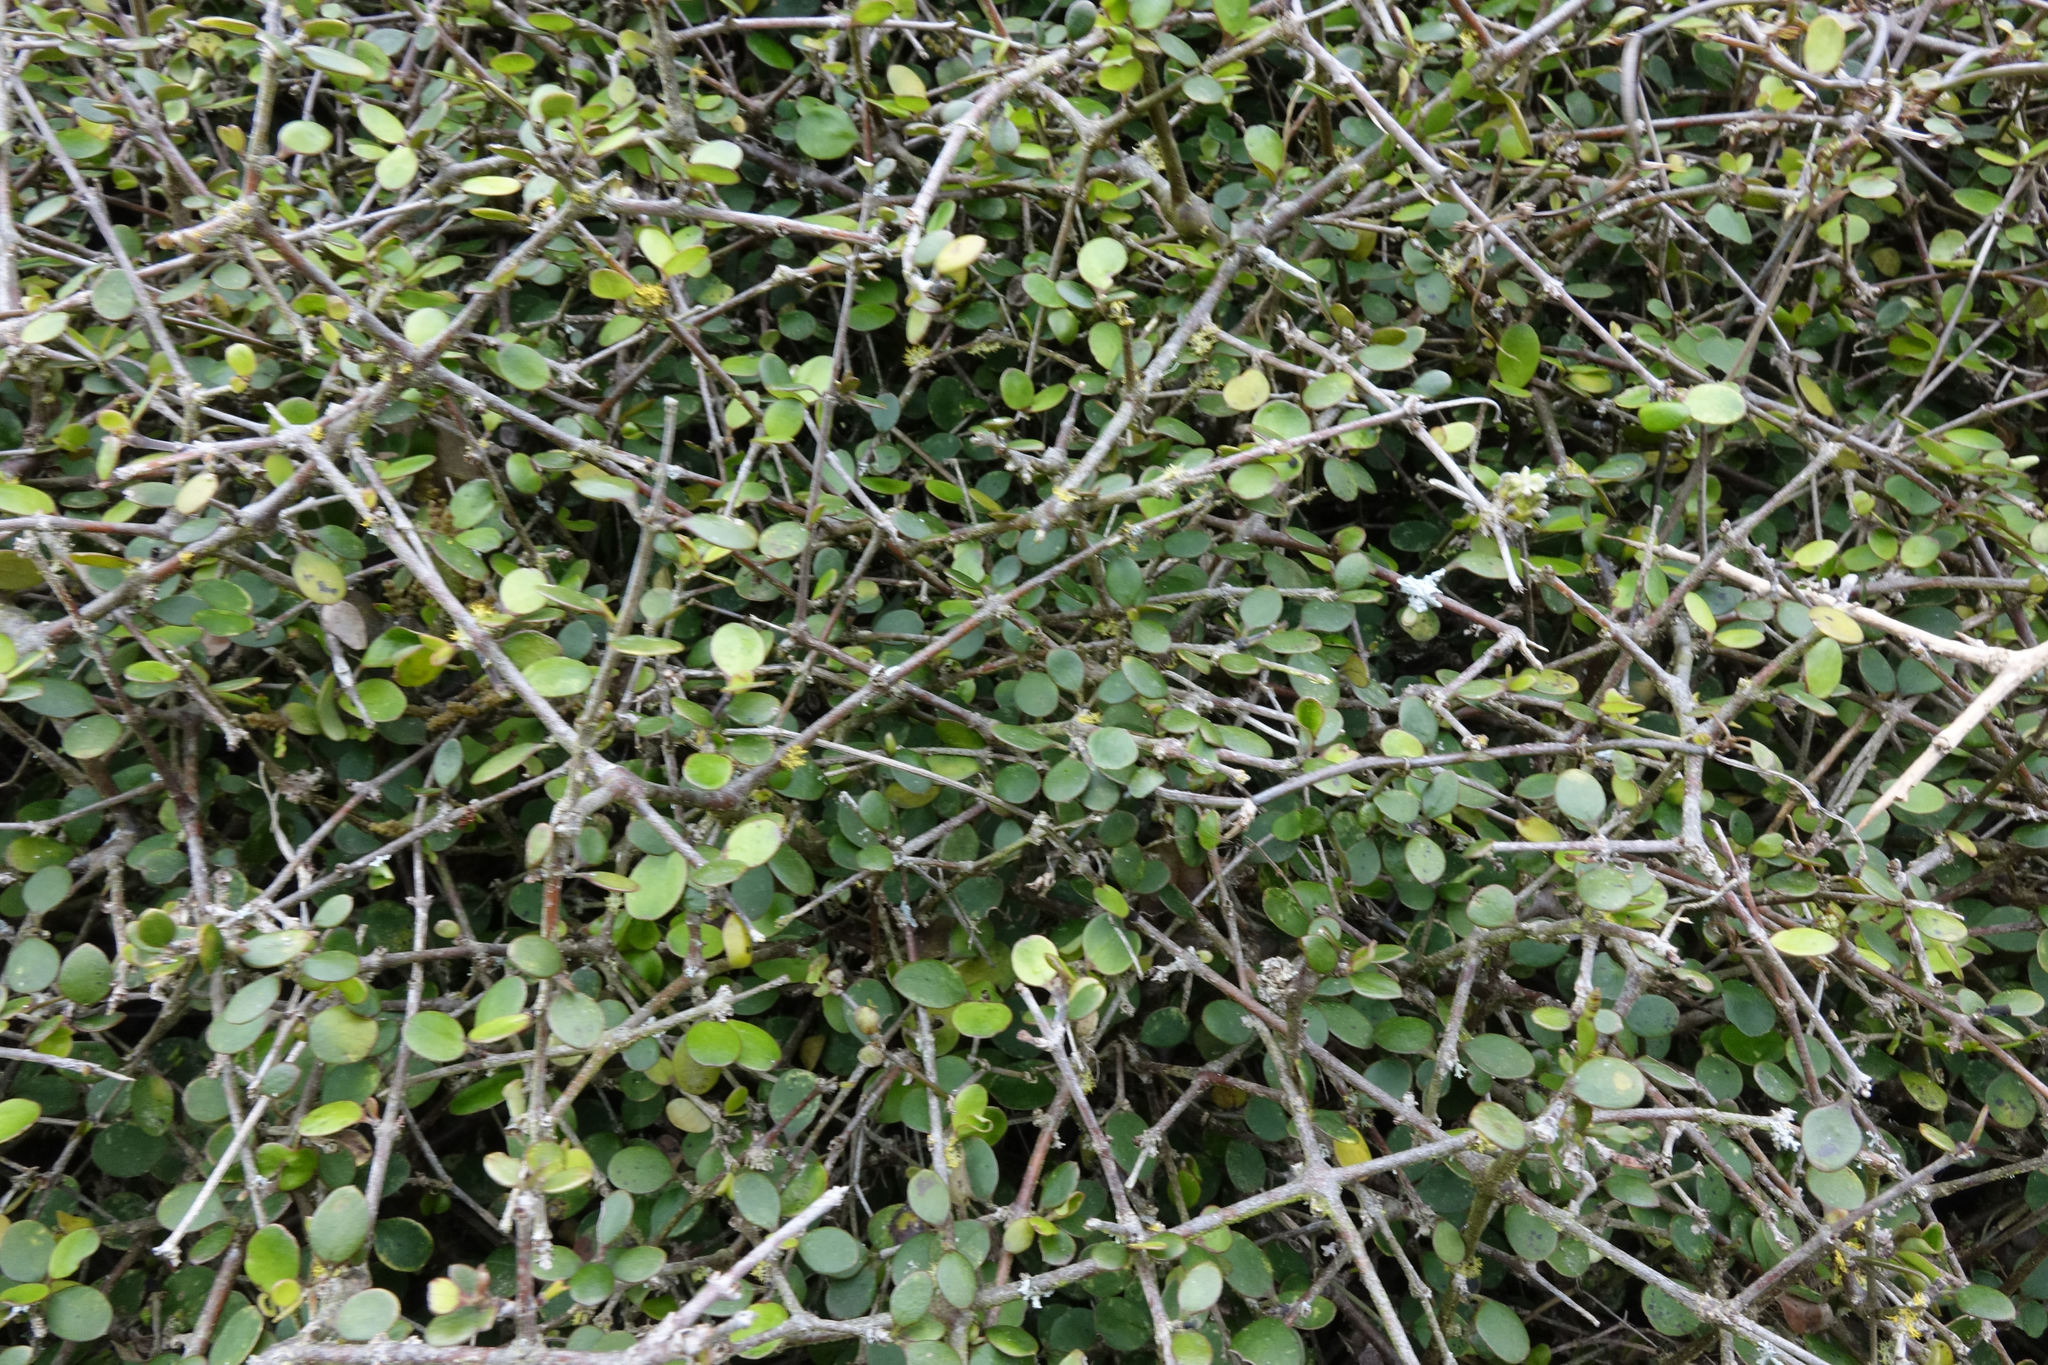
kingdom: Plantae
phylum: Tracheophyta
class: Magnoliopsida
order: Gentianales
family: Rubiaceae
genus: Coprosma
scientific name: Coprosma crassifolia
